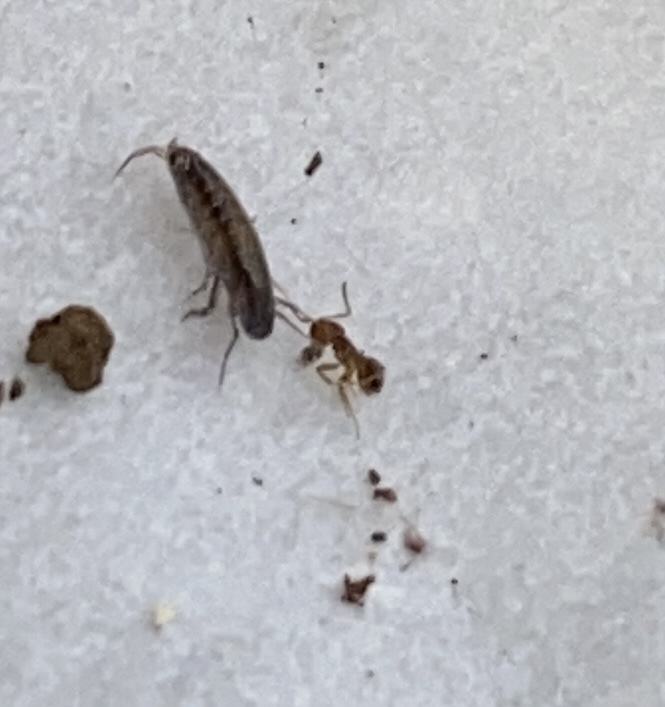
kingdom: Animalia
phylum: Arthropoda
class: Insecta
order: Hymenoptera
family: Formicidae
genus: Brachymyrmex
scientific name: Brachymyrmex obscurior
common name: Obscure rover ant
